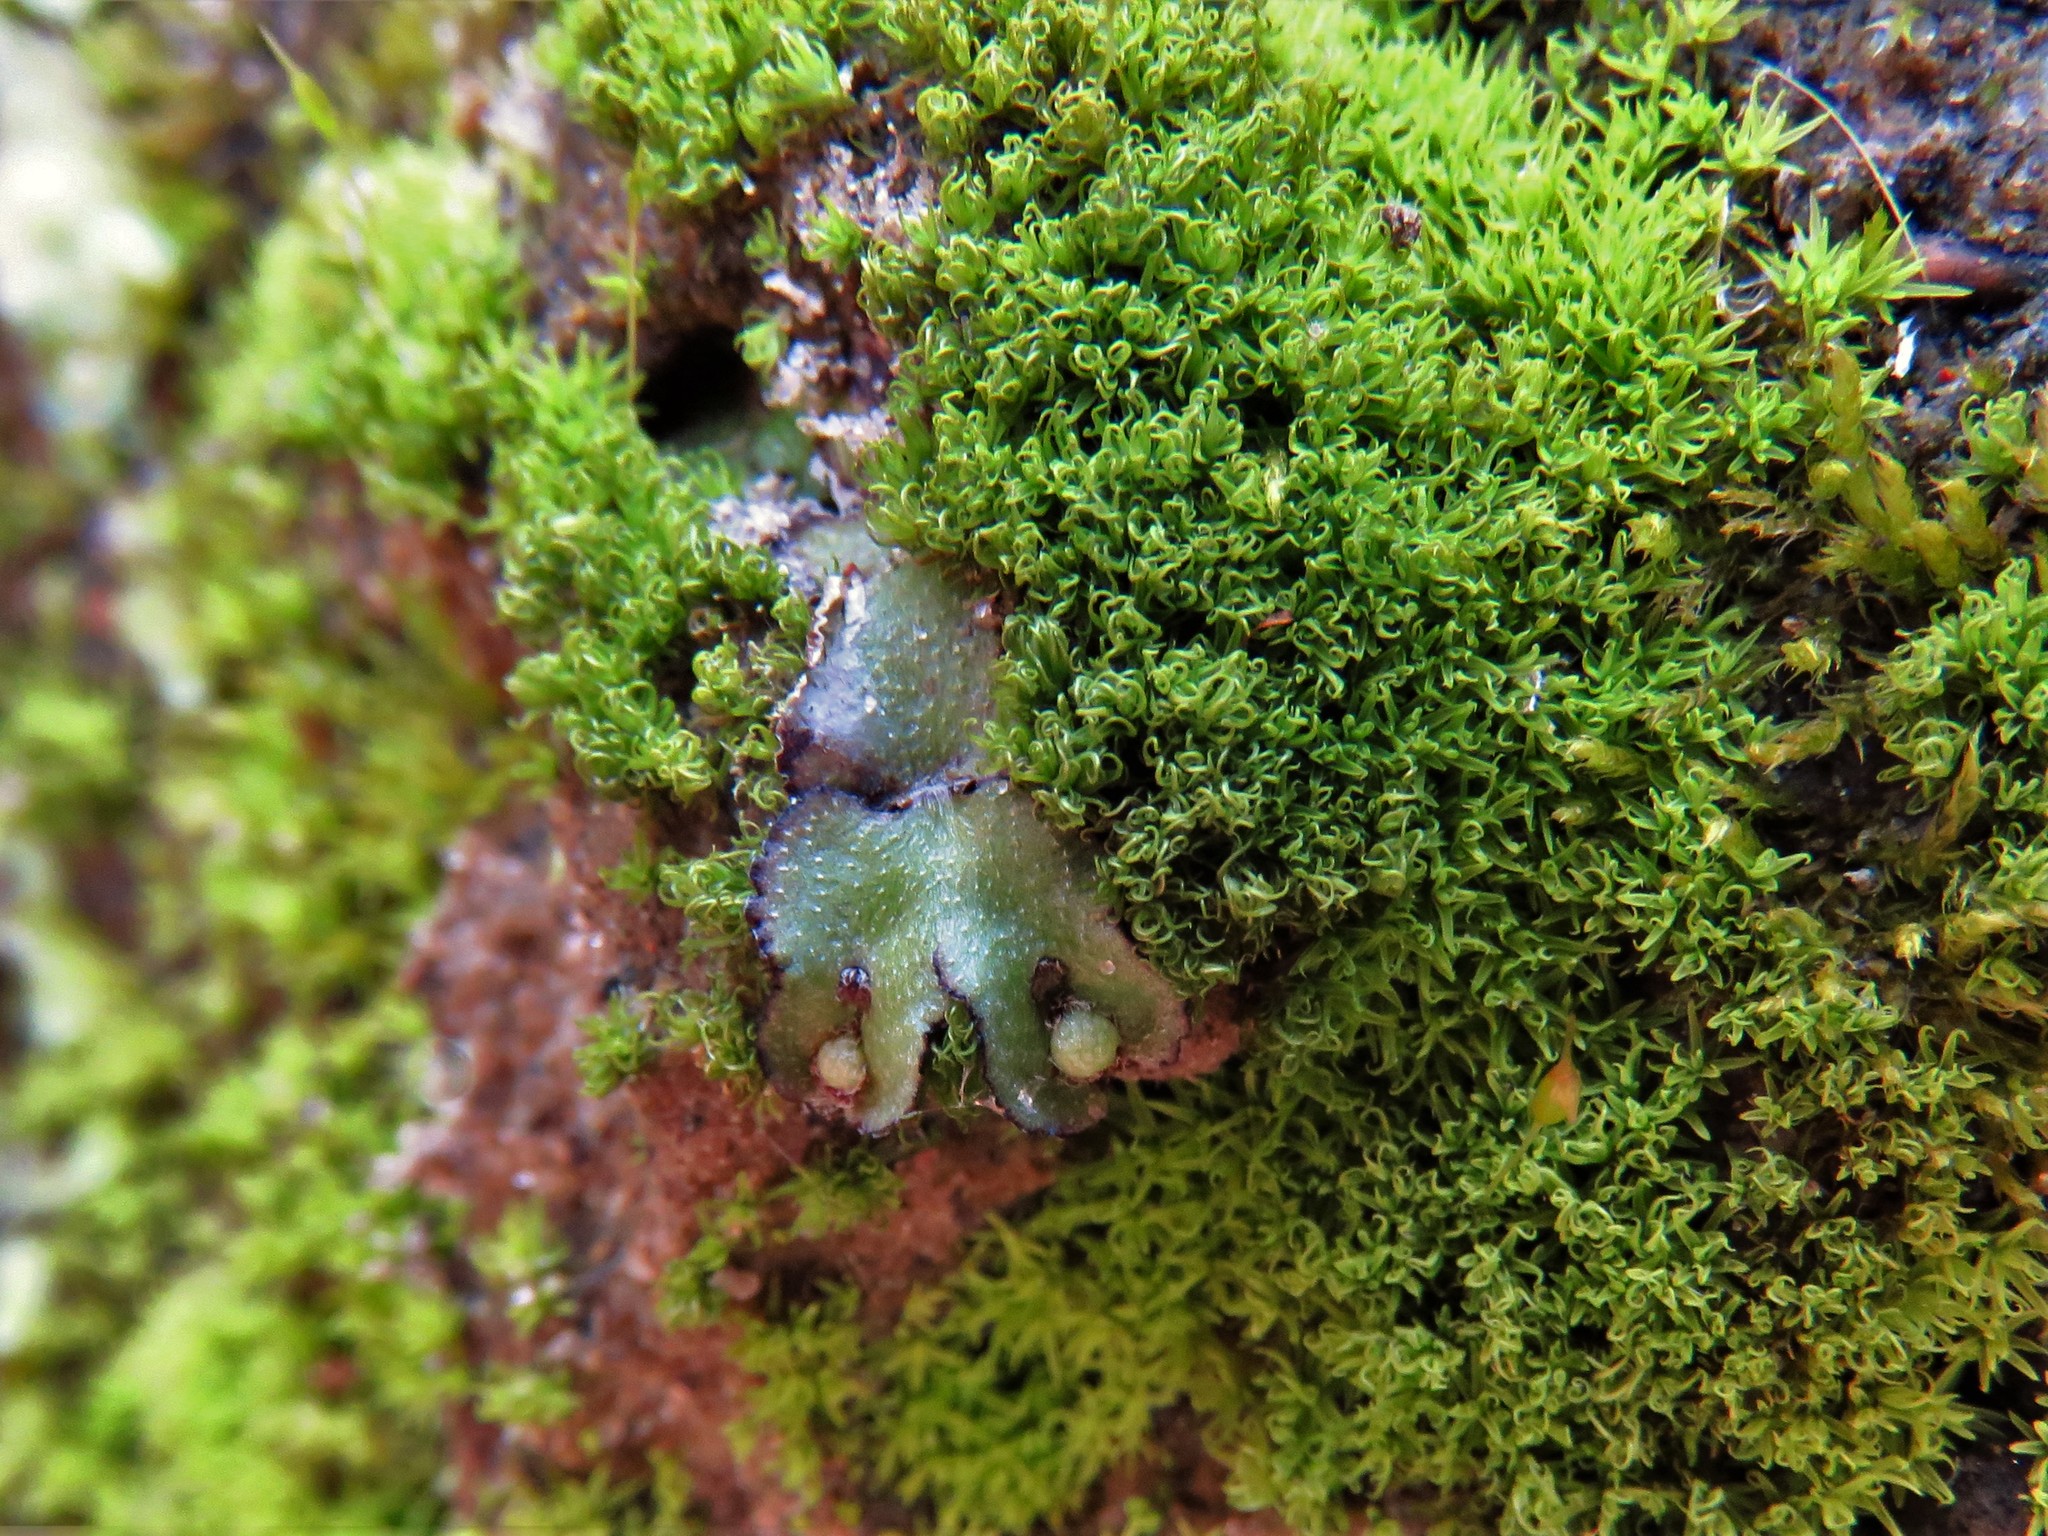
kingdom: Plantae
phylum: Marchantiophyta
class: Marchantiopsida
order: Marchantiales
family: Aytoniaceae
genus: Reboulia
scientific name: Reboulia hemisphaerica
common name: Purple-margined liverwort
